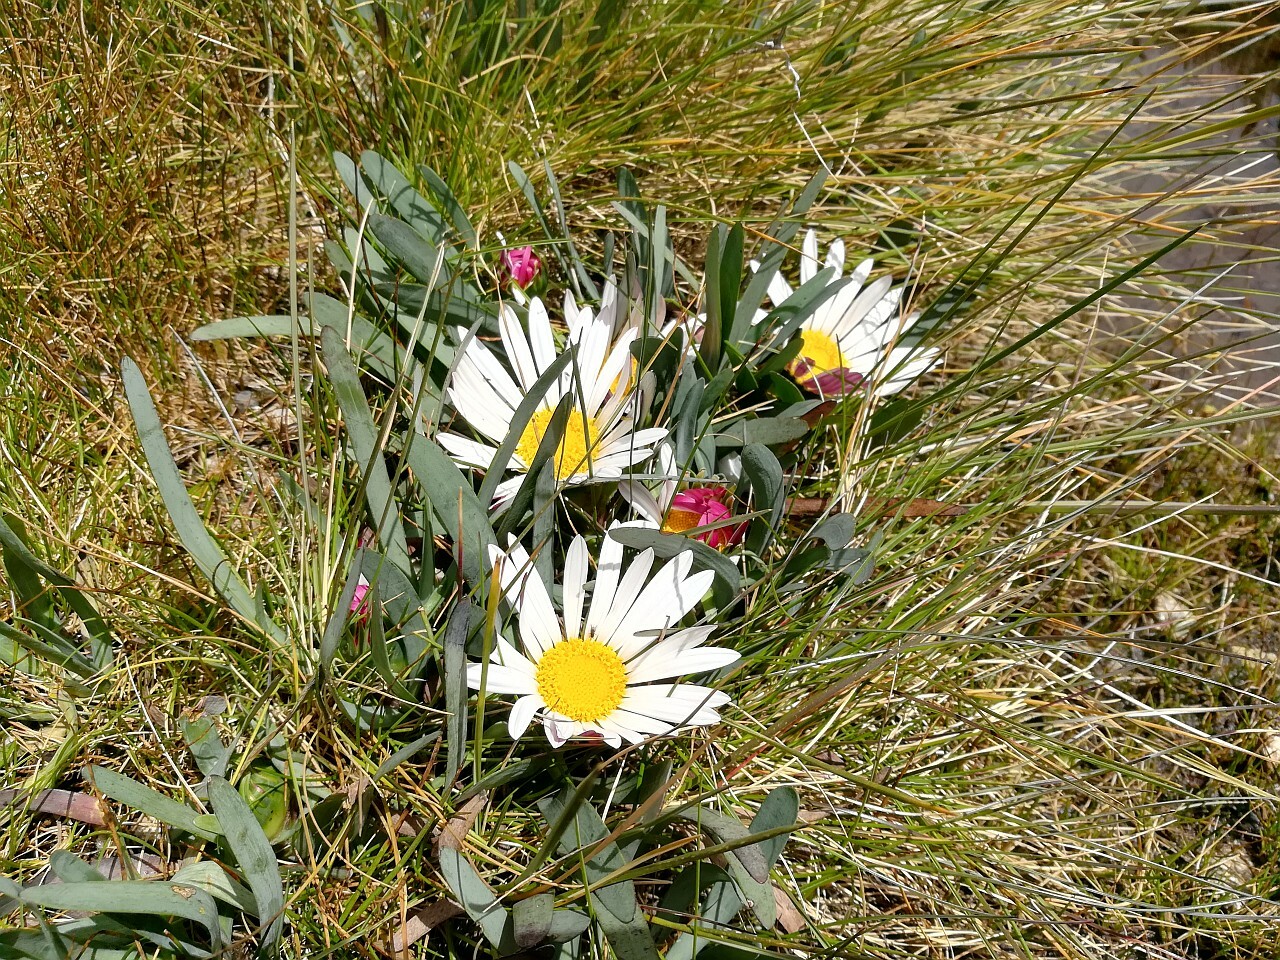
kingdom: Plantae
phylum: Tracheophyta
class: Magnoliopsida
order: Asterales
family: Asteraceae
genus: Rockhausenia
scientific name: Rockhausenia nubigena
